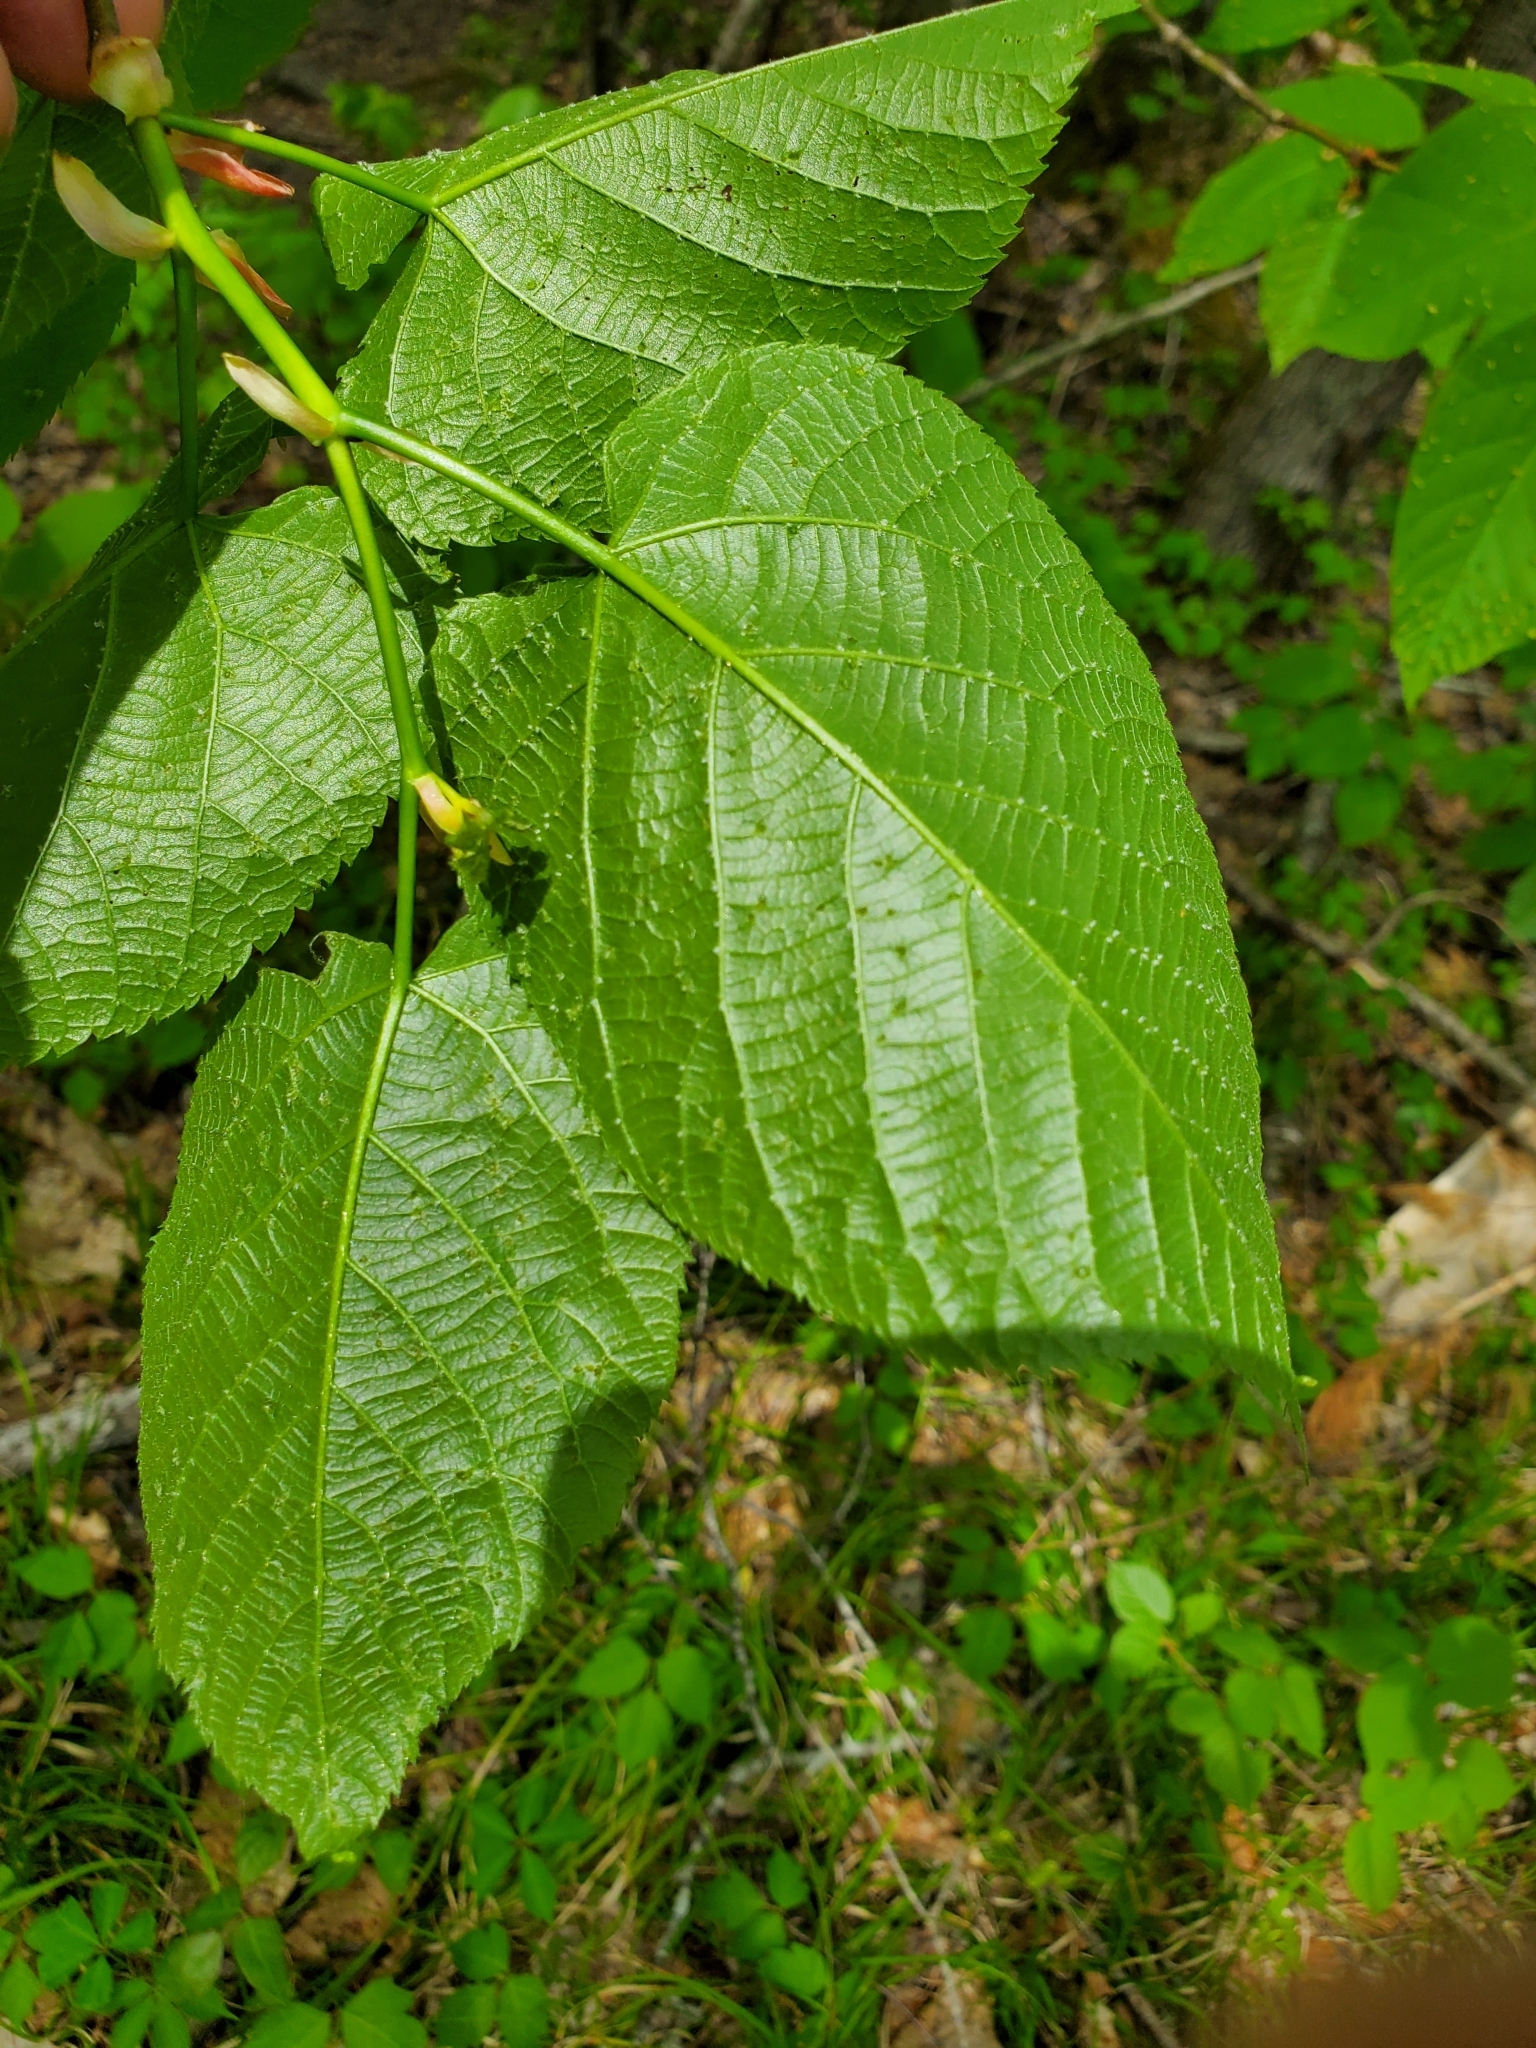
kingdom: Animalia
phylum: Arthropoda
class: Arachnida
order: Trombidiformes
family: Eriophyidae
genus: Eriophyes
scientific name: Eriophyes tiliae
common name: Red nail gall mite
